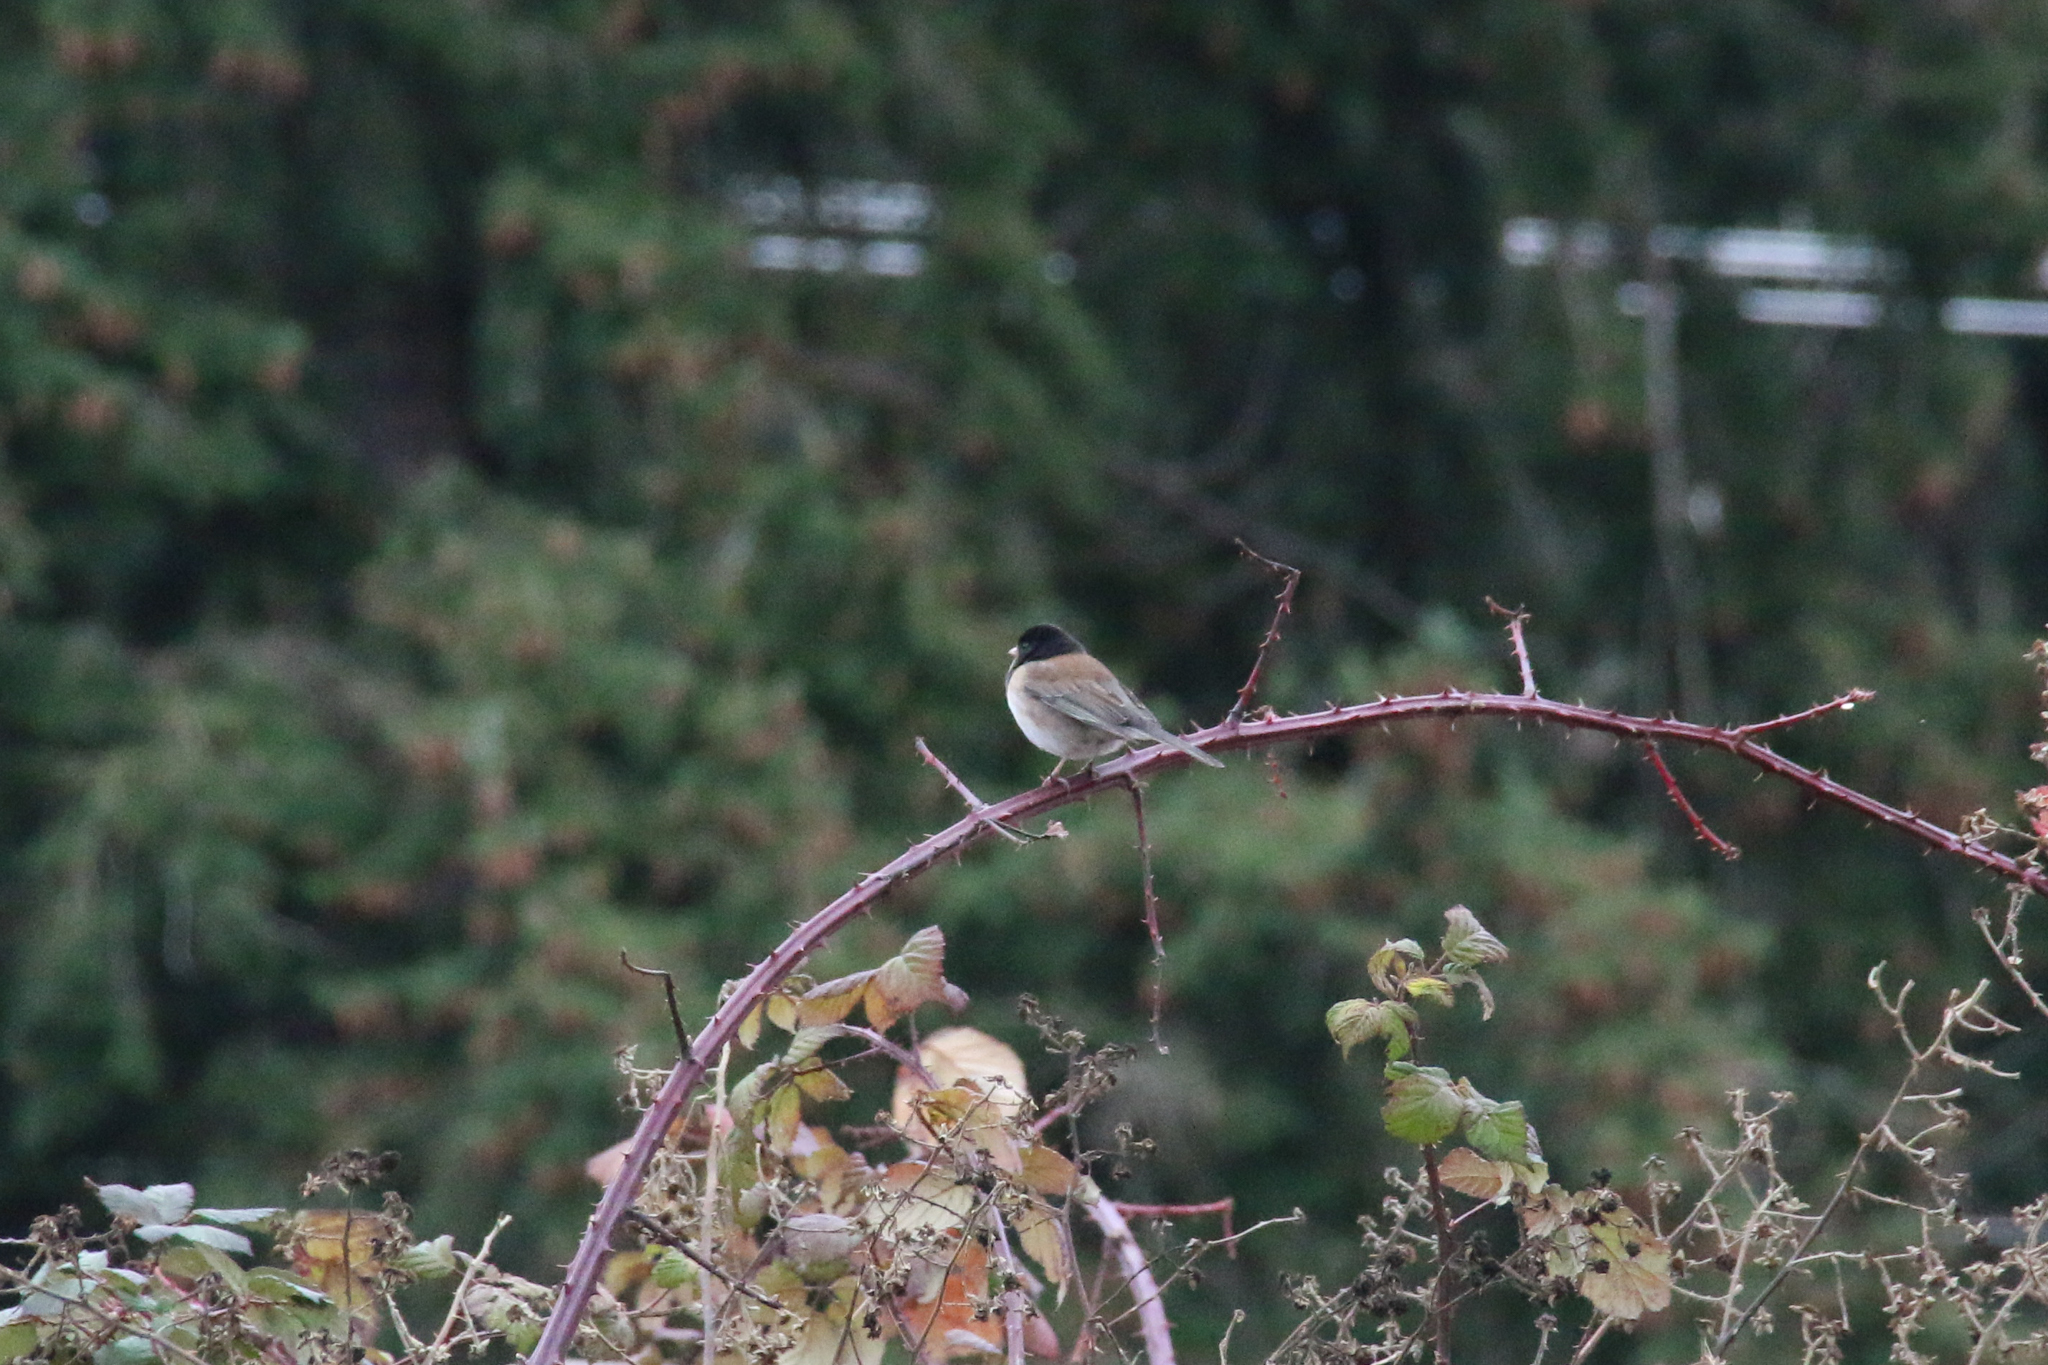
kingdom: Animalia
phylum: Chordata
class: Aves
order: Passeriformes
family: Passerellidae
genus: Junco
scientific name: Junco hyemalis
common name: Dark-eyed junco
